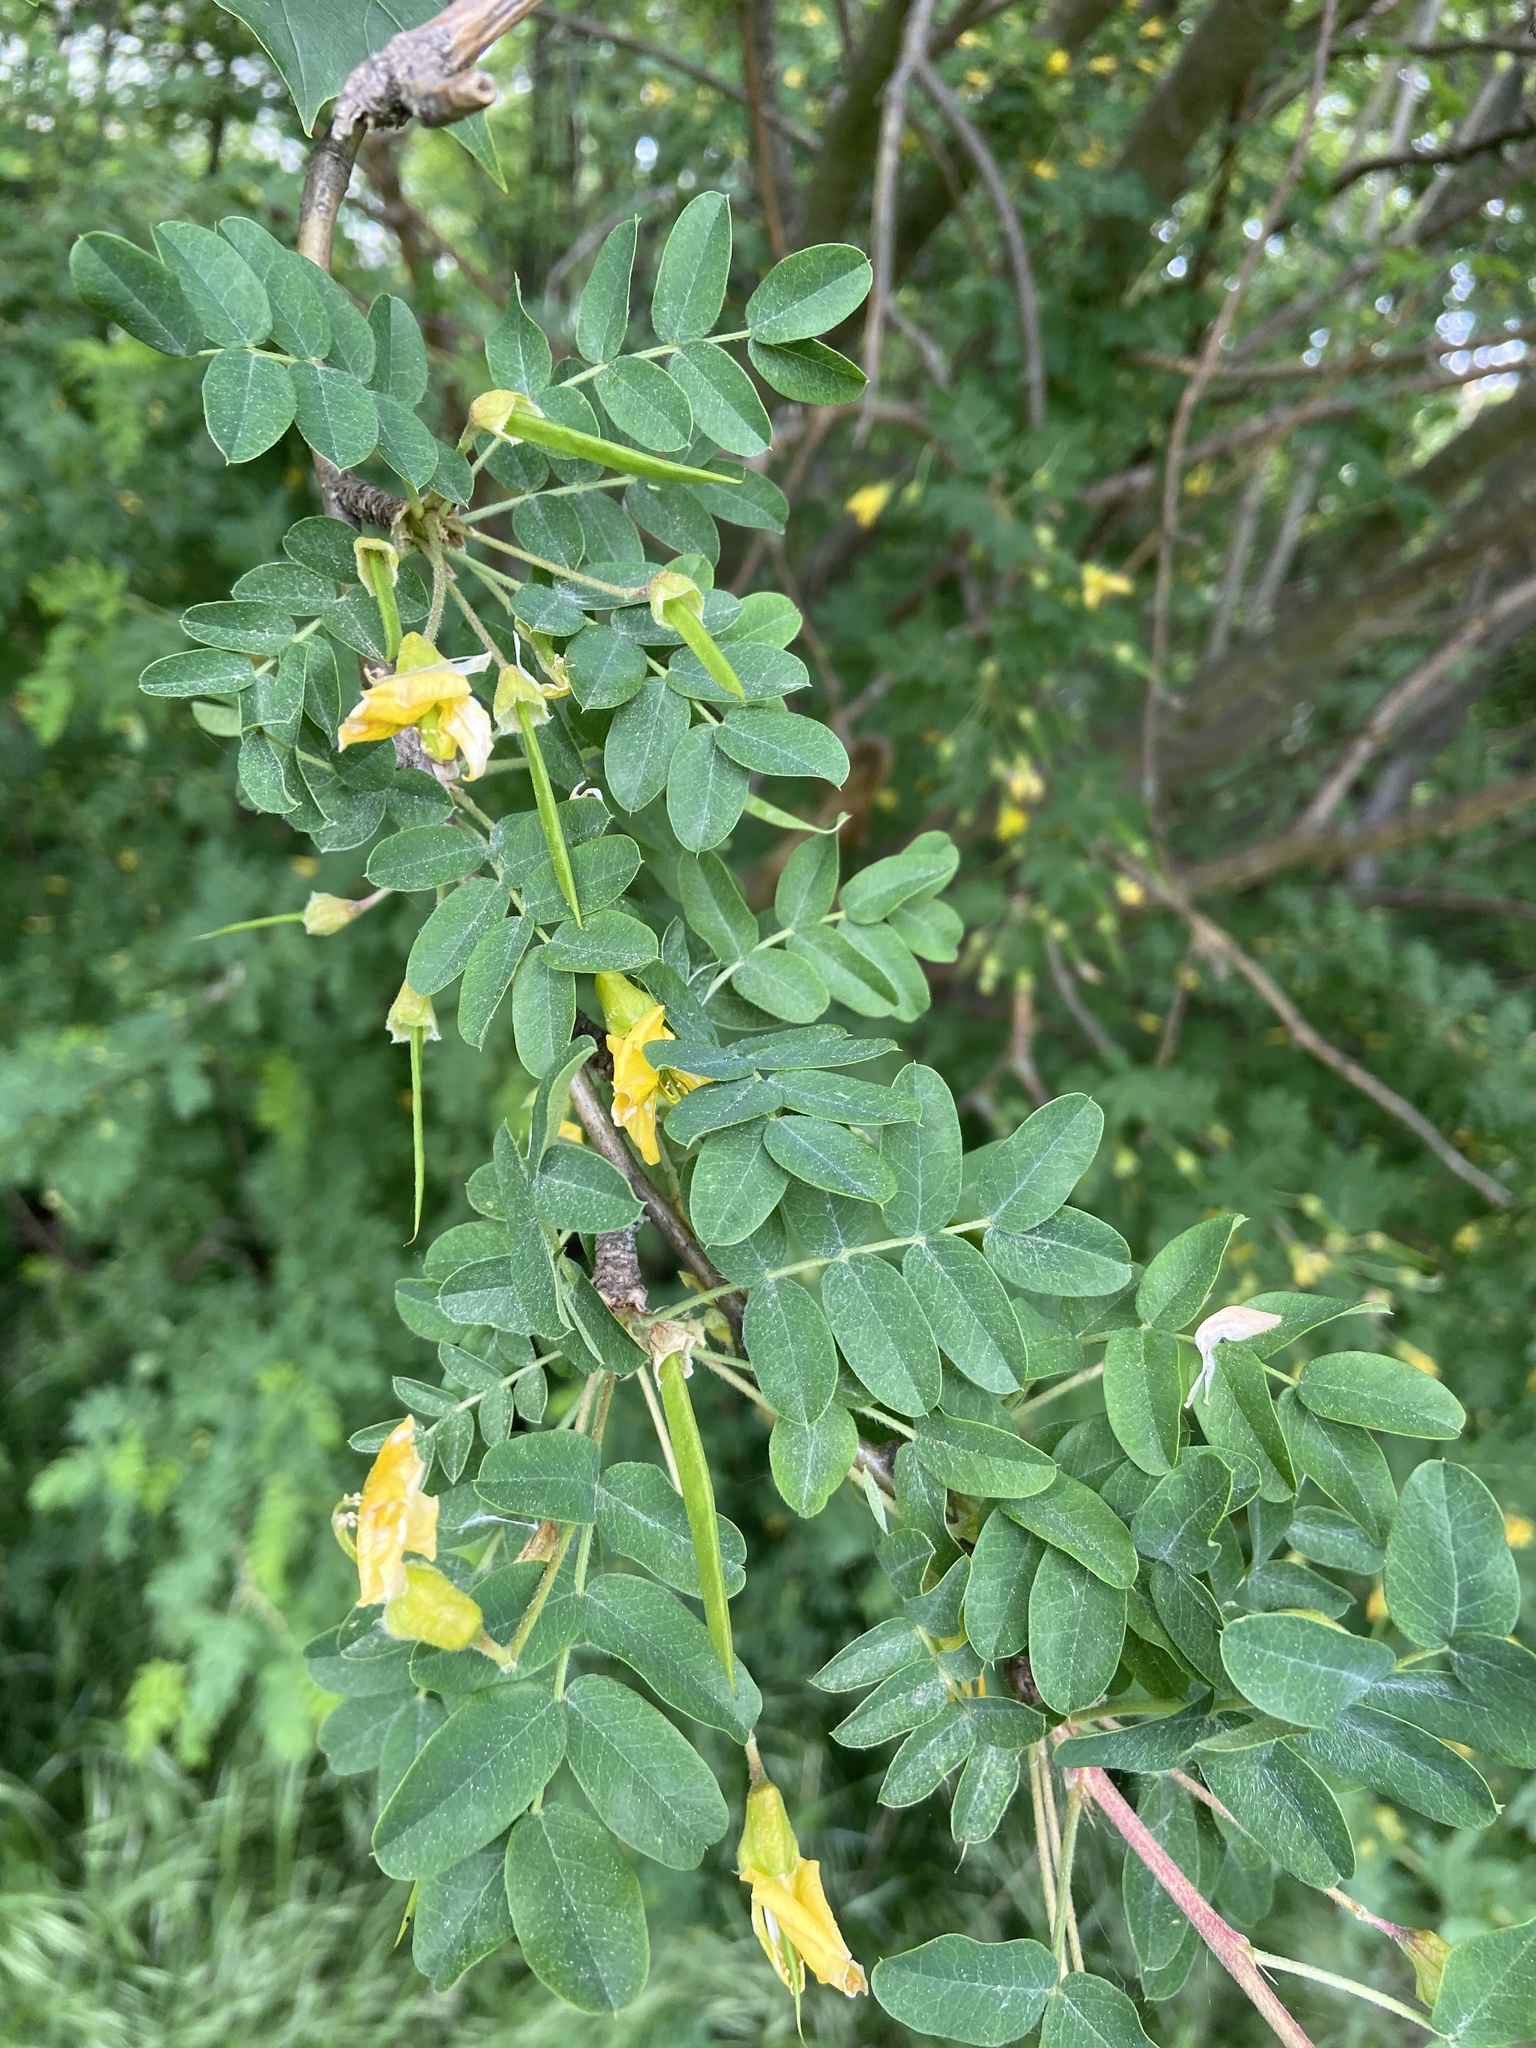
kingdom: Plantae
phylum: Tracheophyta
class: Magnoliopsida
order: Fabales
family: Fabaceae
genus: Caragana
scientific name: Caragana arborescens
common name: Siberian peashrub
